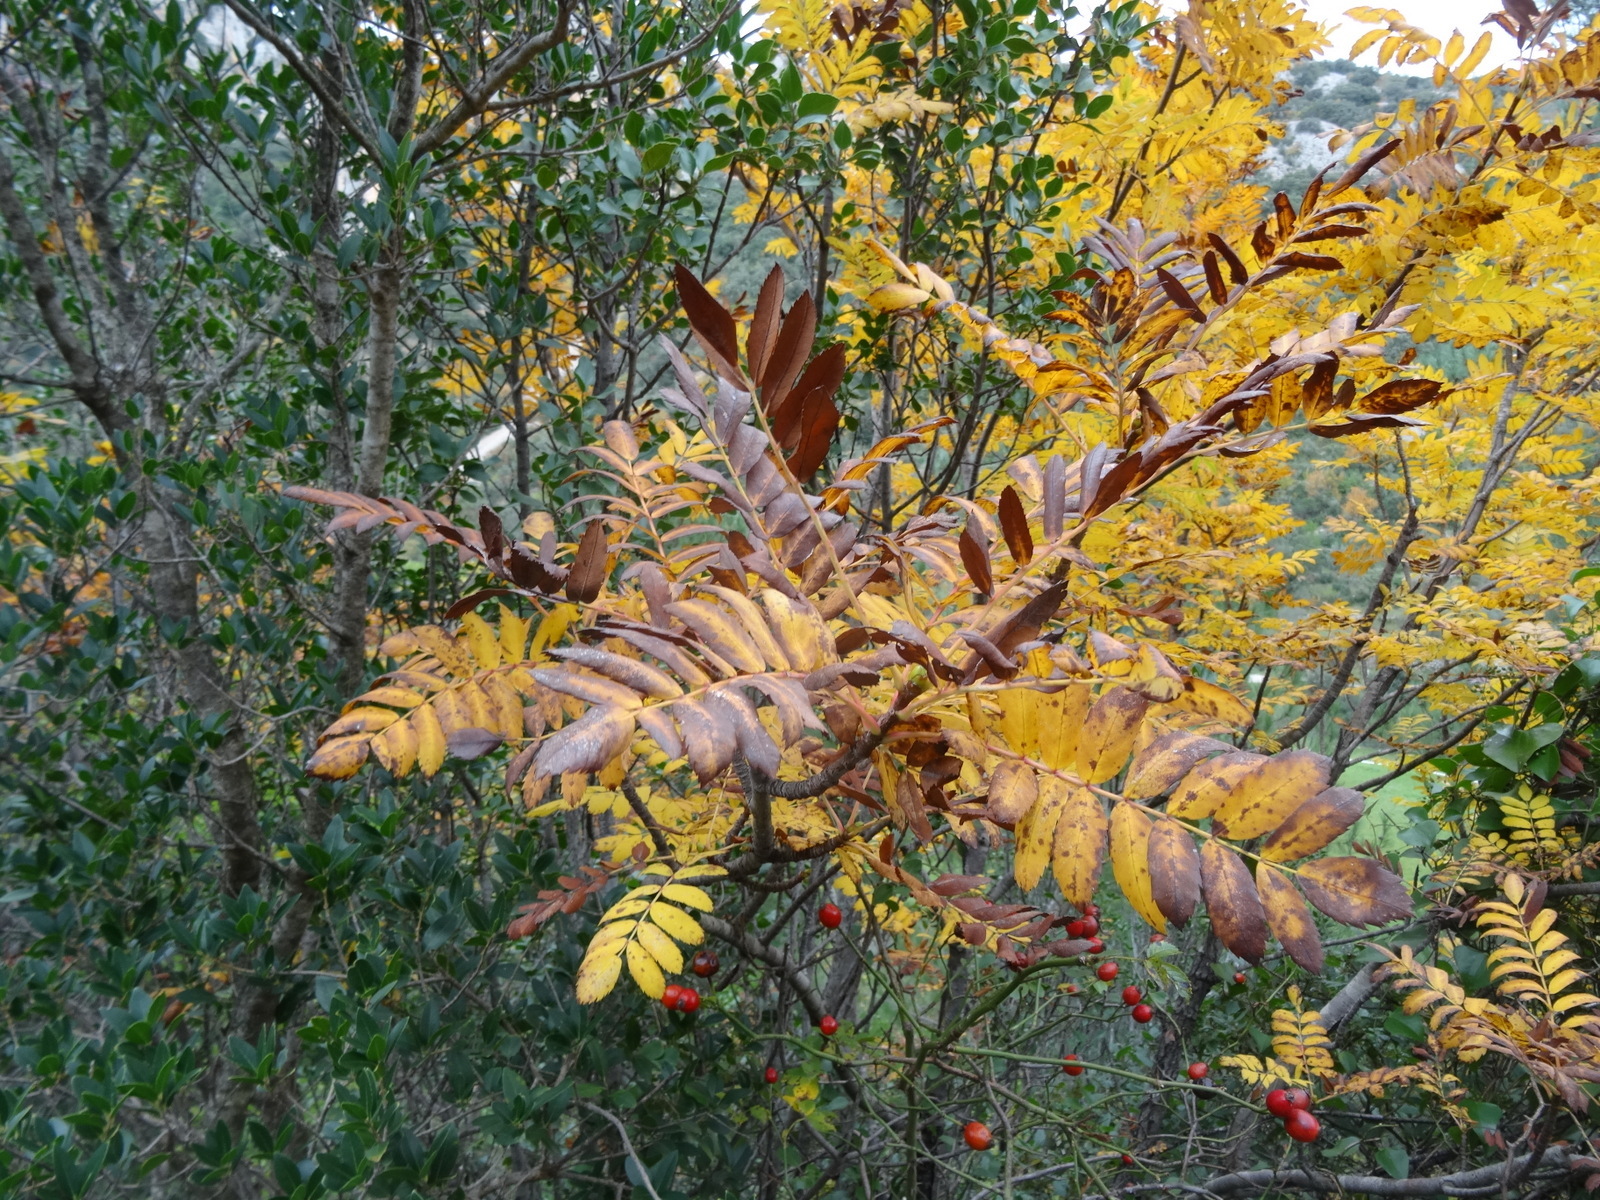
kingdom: Plantae
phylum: Tracheophyta
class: Magnoliopsida
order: Rosales
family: Rosaceae
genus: Sorbus
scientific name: Sorbus aucuparia
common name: Rowan
